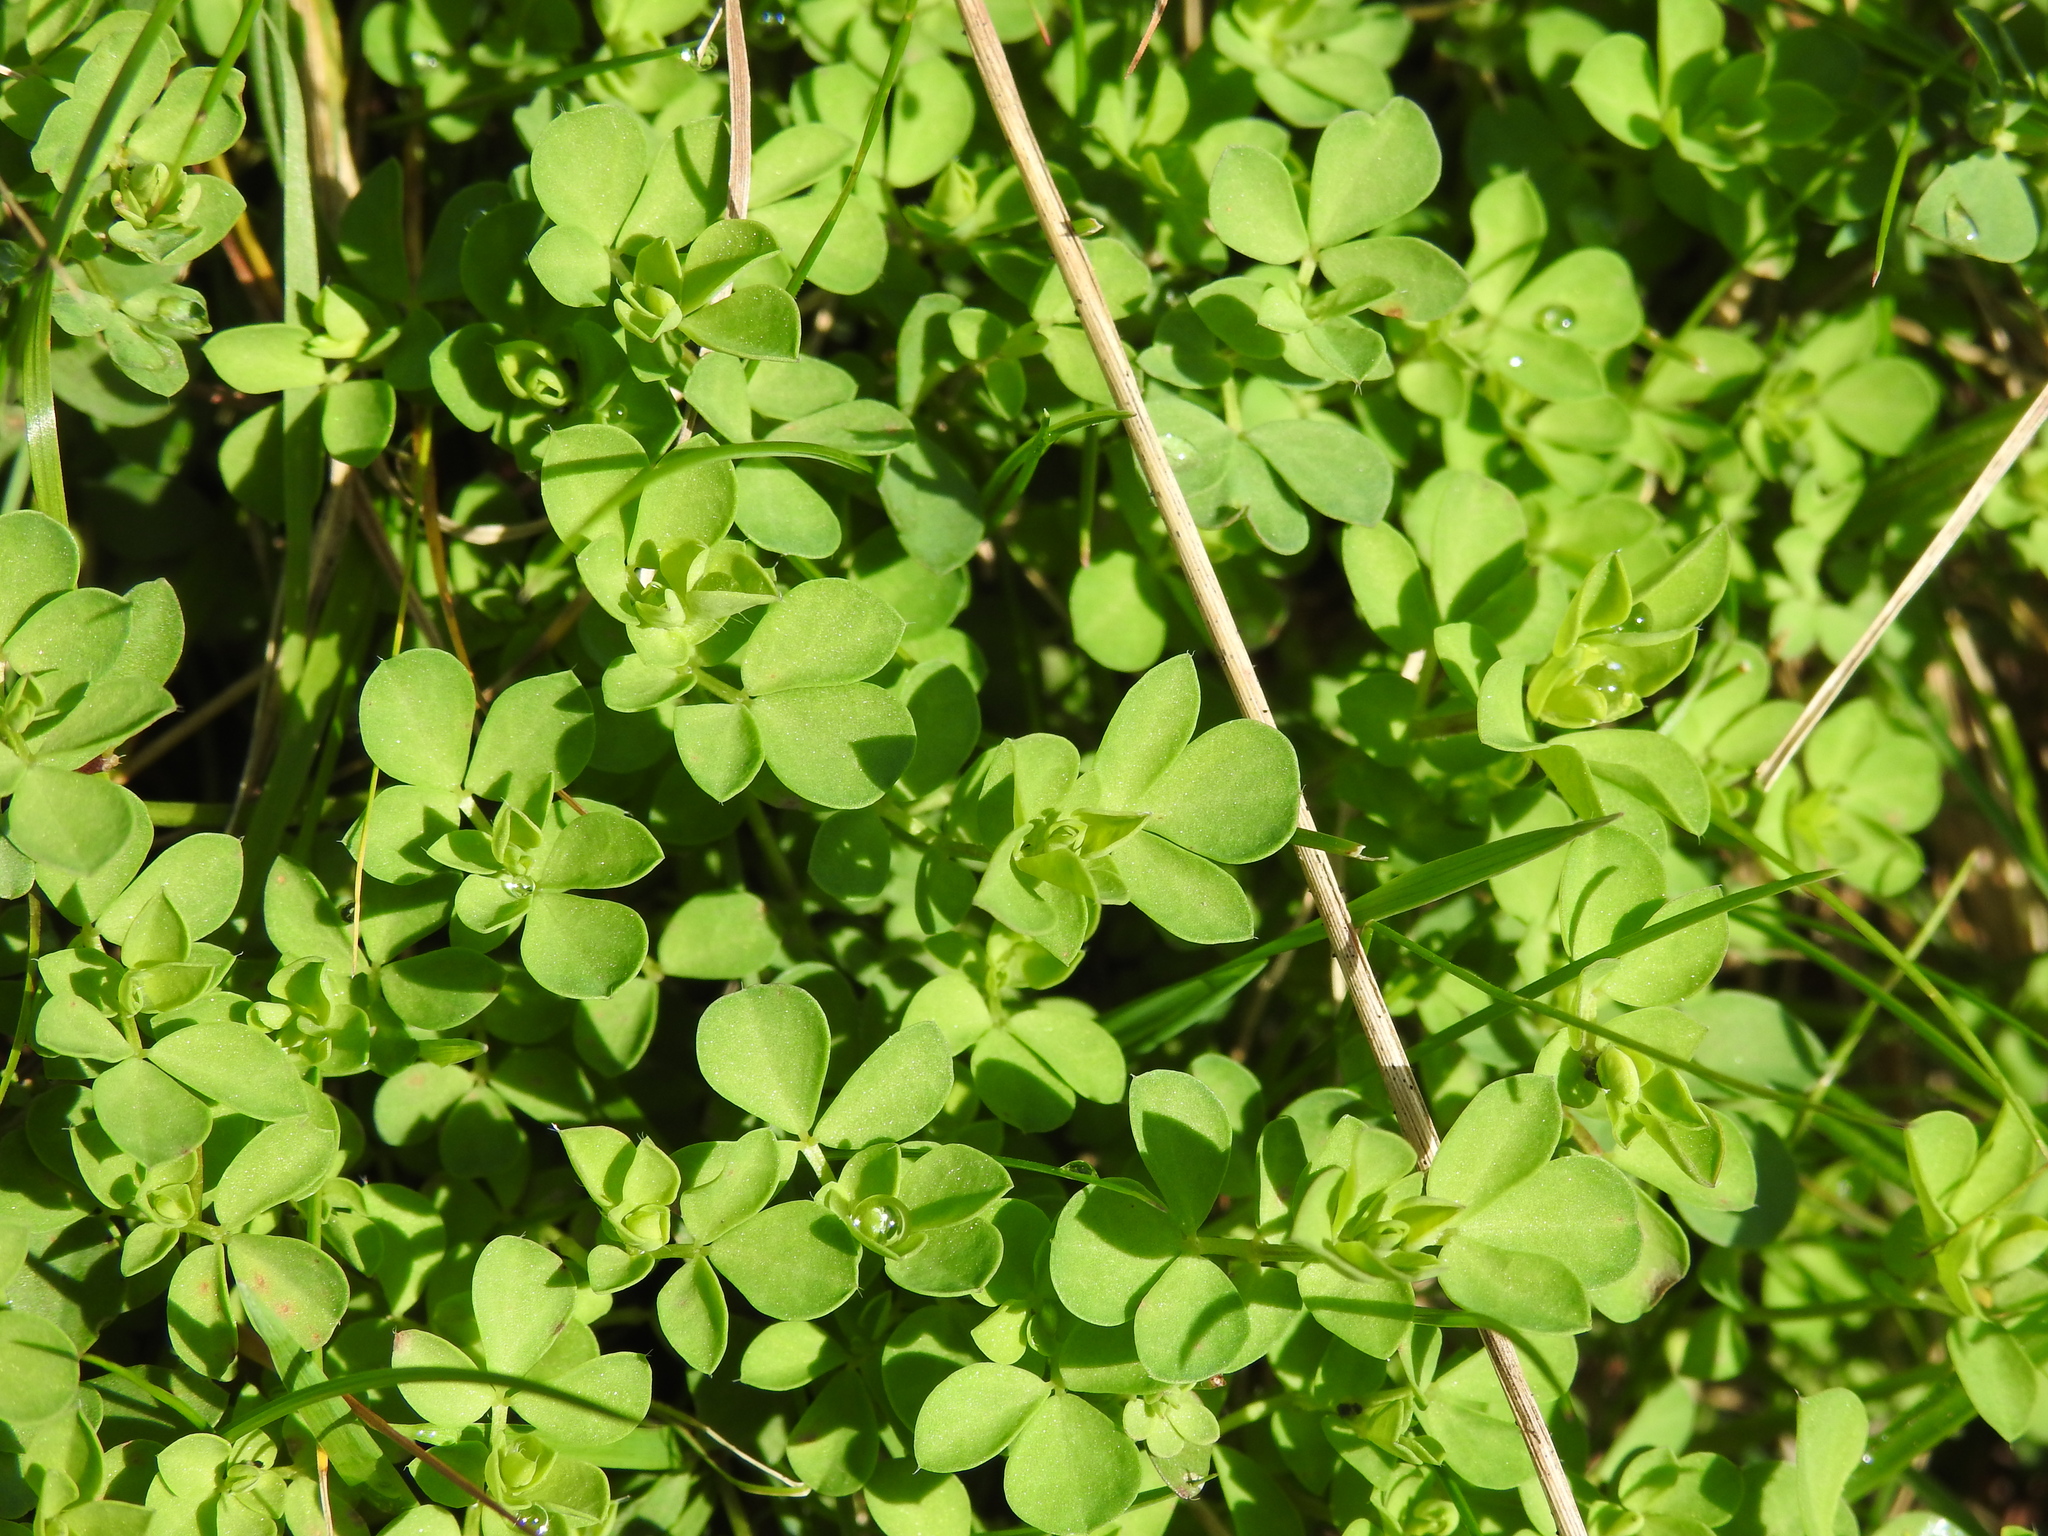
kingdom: Plantae
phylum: Tracheophyta
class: Magnoliopsida
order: Fabales
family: Fabaceae
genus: Lotus
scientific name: Lotus corniculatus
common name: Common bird's-foot-trefoil
